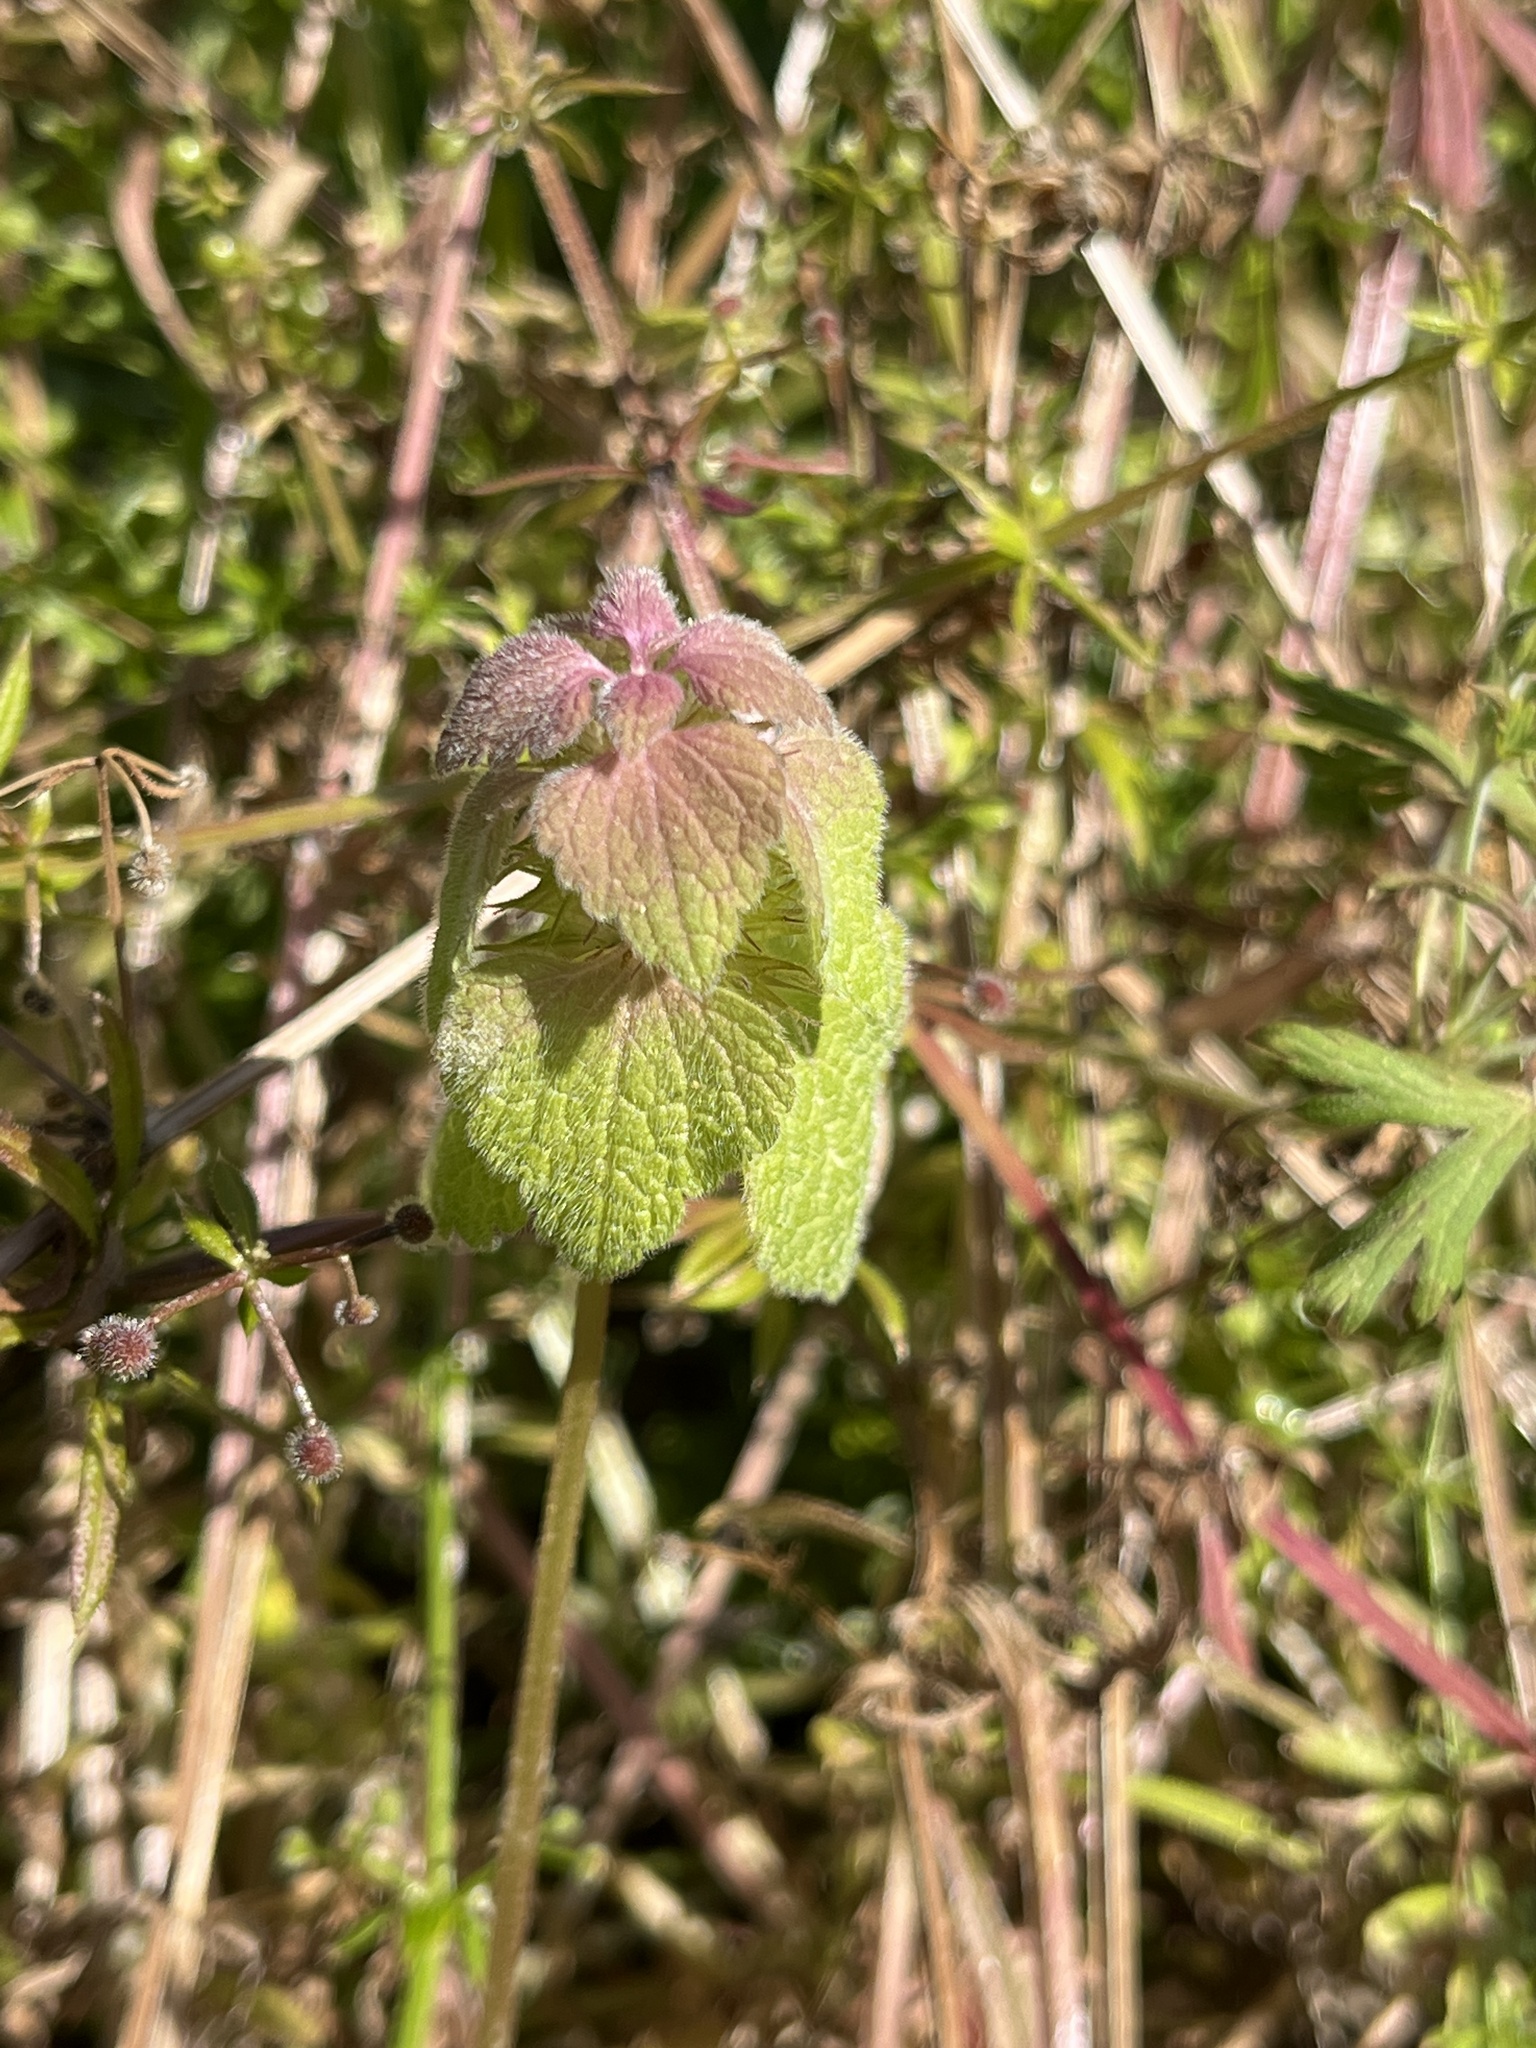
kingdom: Plantae
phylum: Tracheophyta
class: Magnoliopsida
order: Lamiales
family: Lamiaceae
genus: Lamium
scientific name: Lamium purpureum
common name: Red dead-nettle
